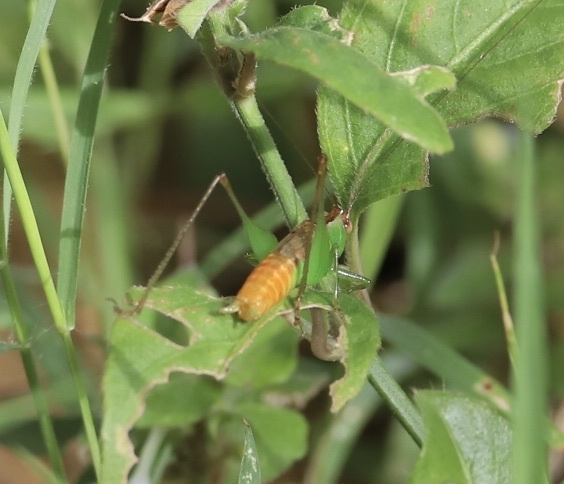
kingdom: Animalia
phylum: Arthropoda
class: Insecta
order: Orthoptera
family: Tettigoniidae
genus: Conocephalus
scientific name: Conocephalus saltator
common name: Katydid
